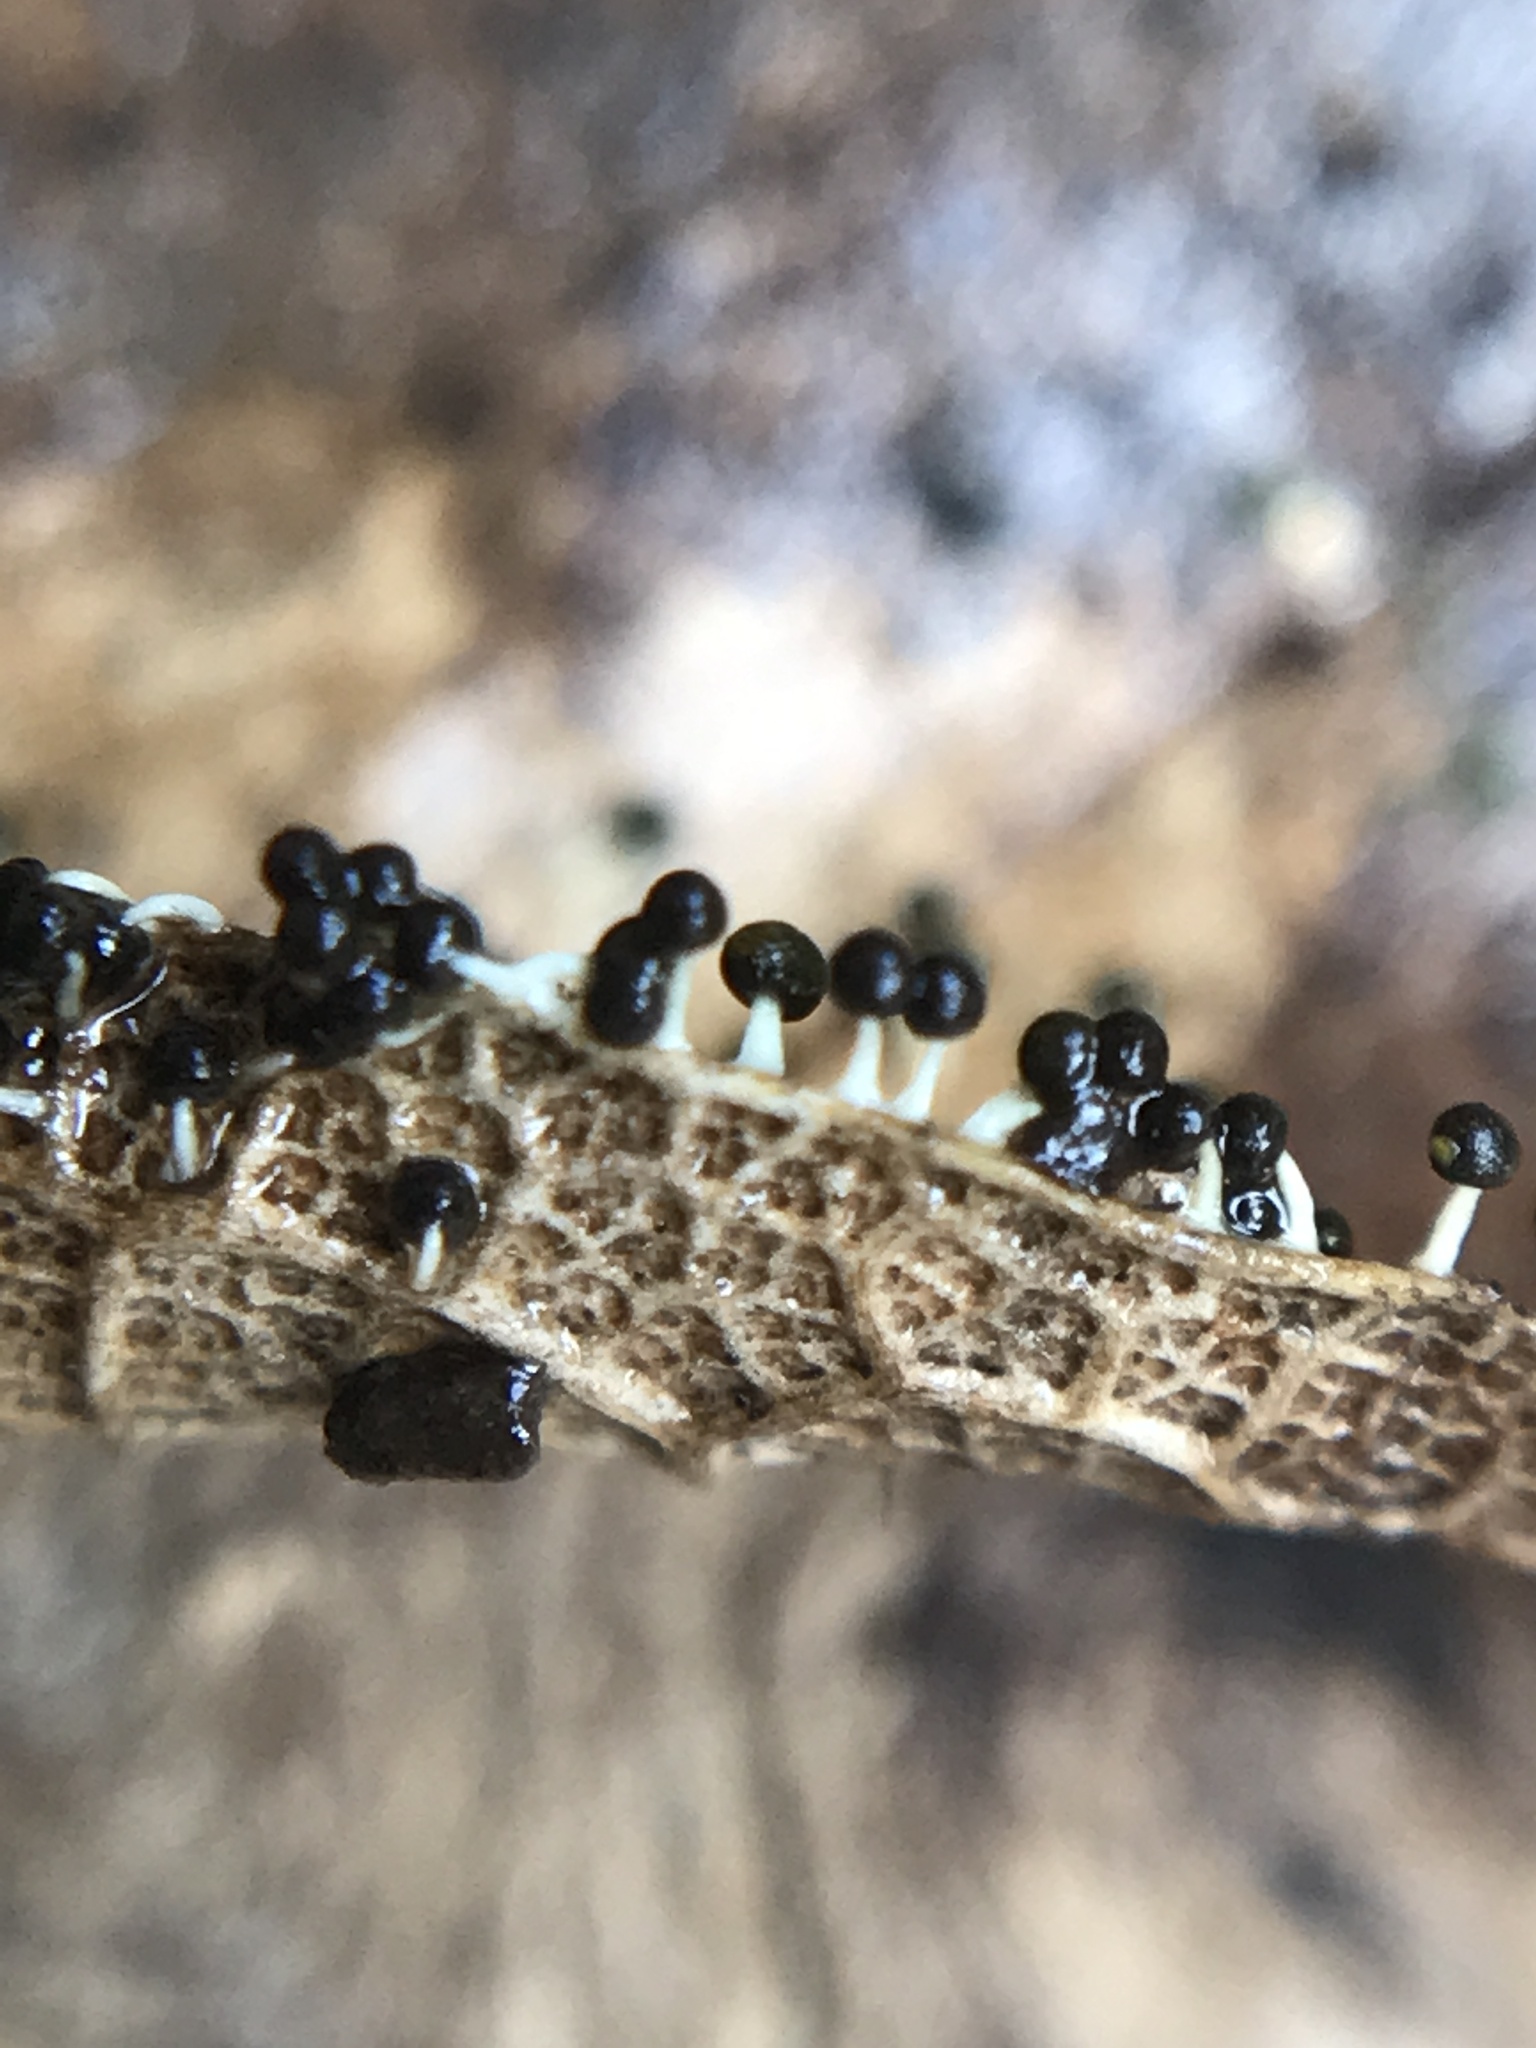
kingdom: Protozoa
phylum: Mycetozoa
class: Myxomycetes
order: Physarales
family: Physaraceae
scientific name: Physaraceae
